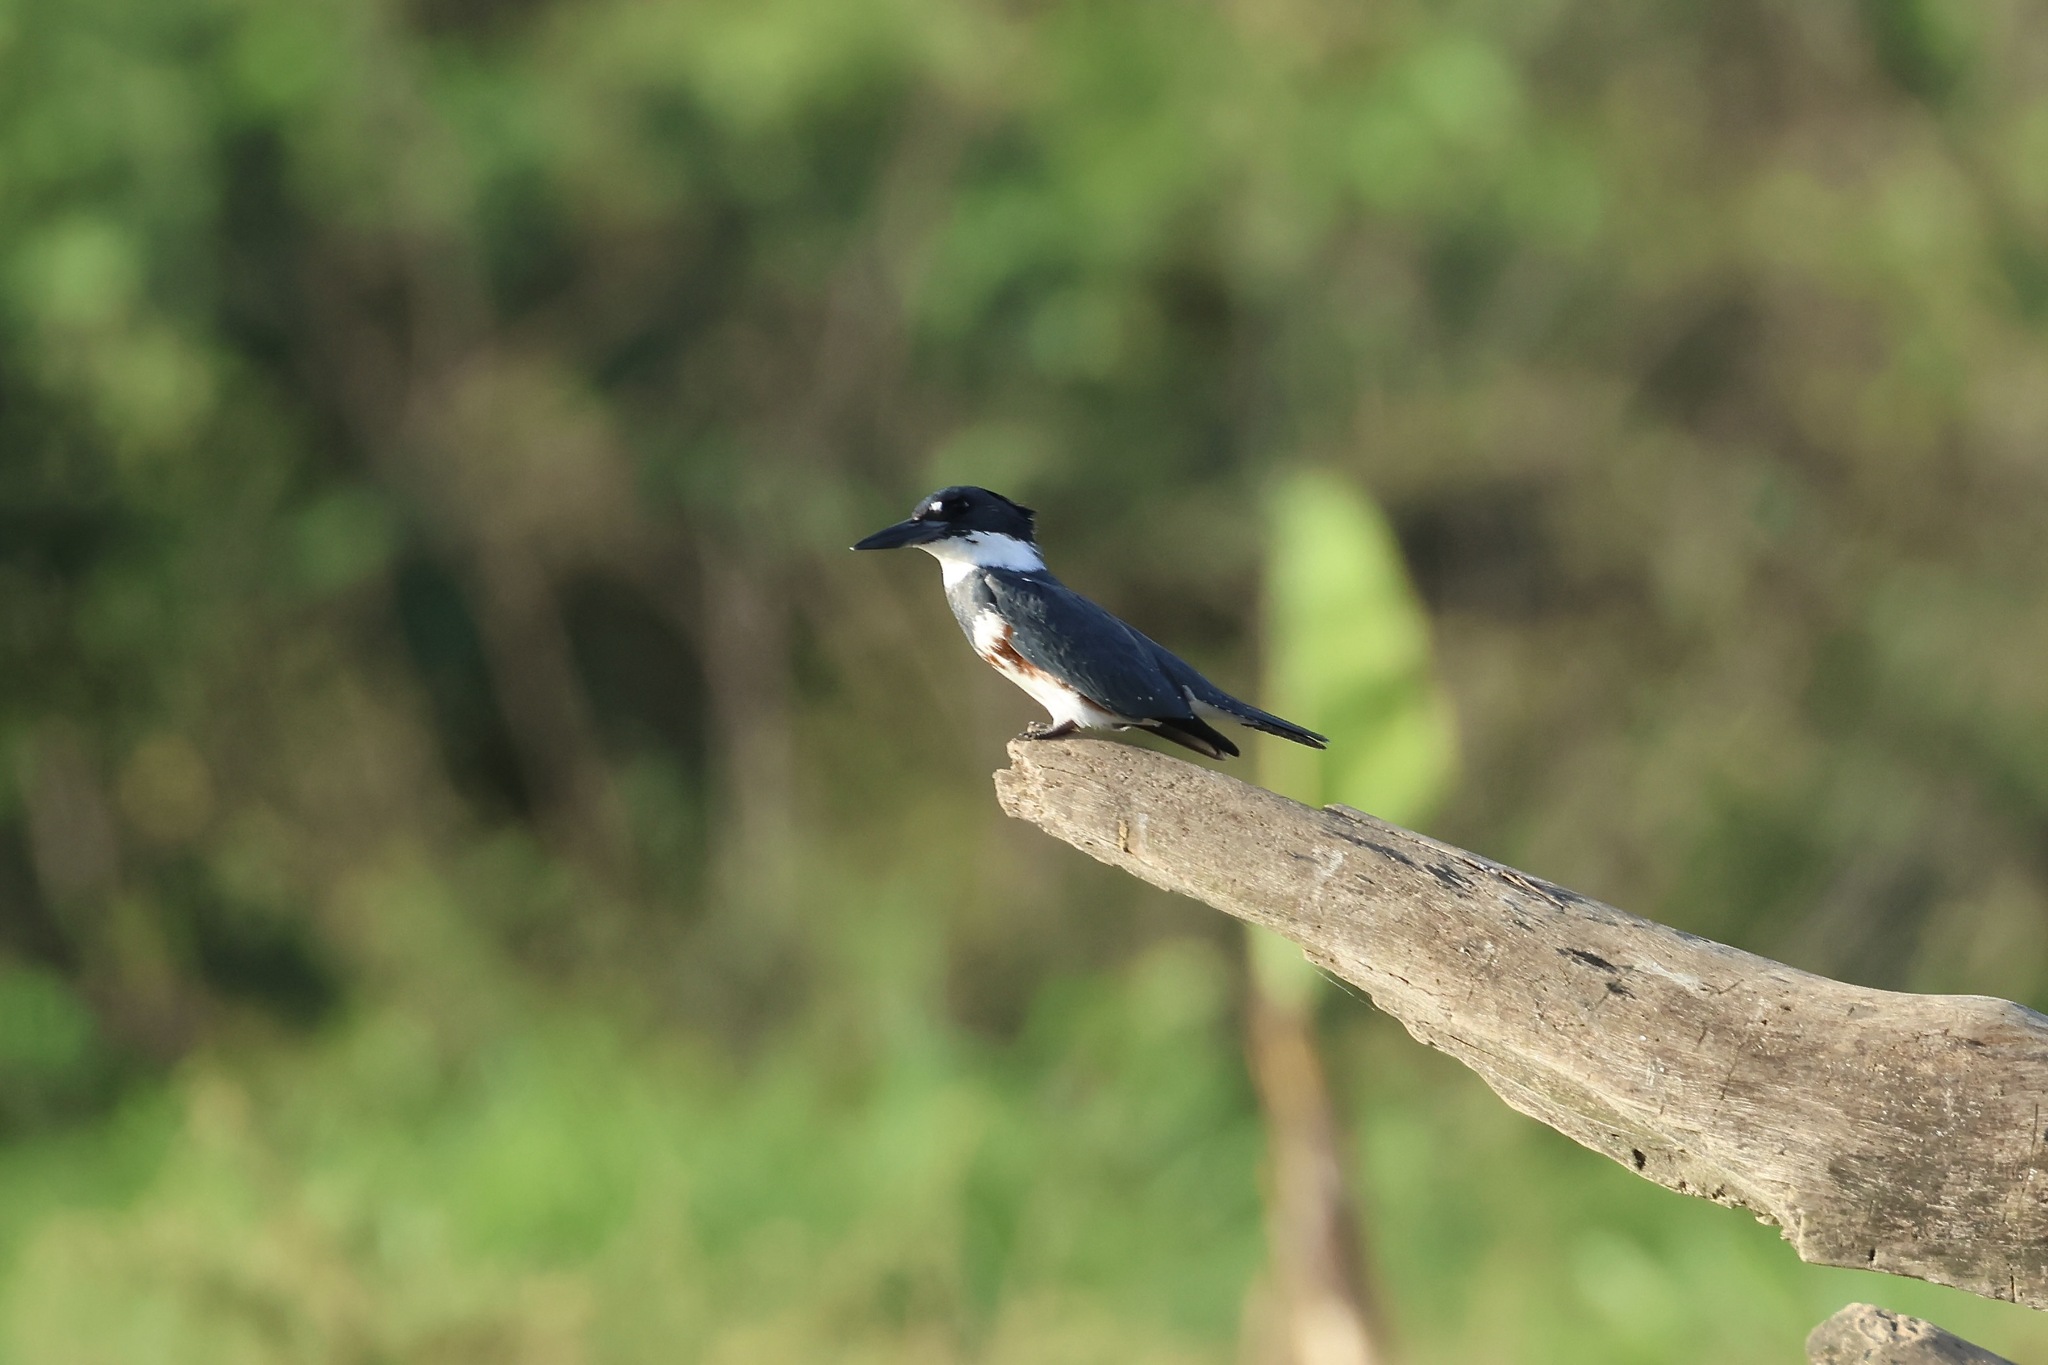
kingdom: Animalia
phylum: Chordata
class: Aves
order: Coraciiformes
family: Alcedinidae
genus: Megaceryle
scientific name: Megaceryle alcyon
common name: Belted kingfisher
